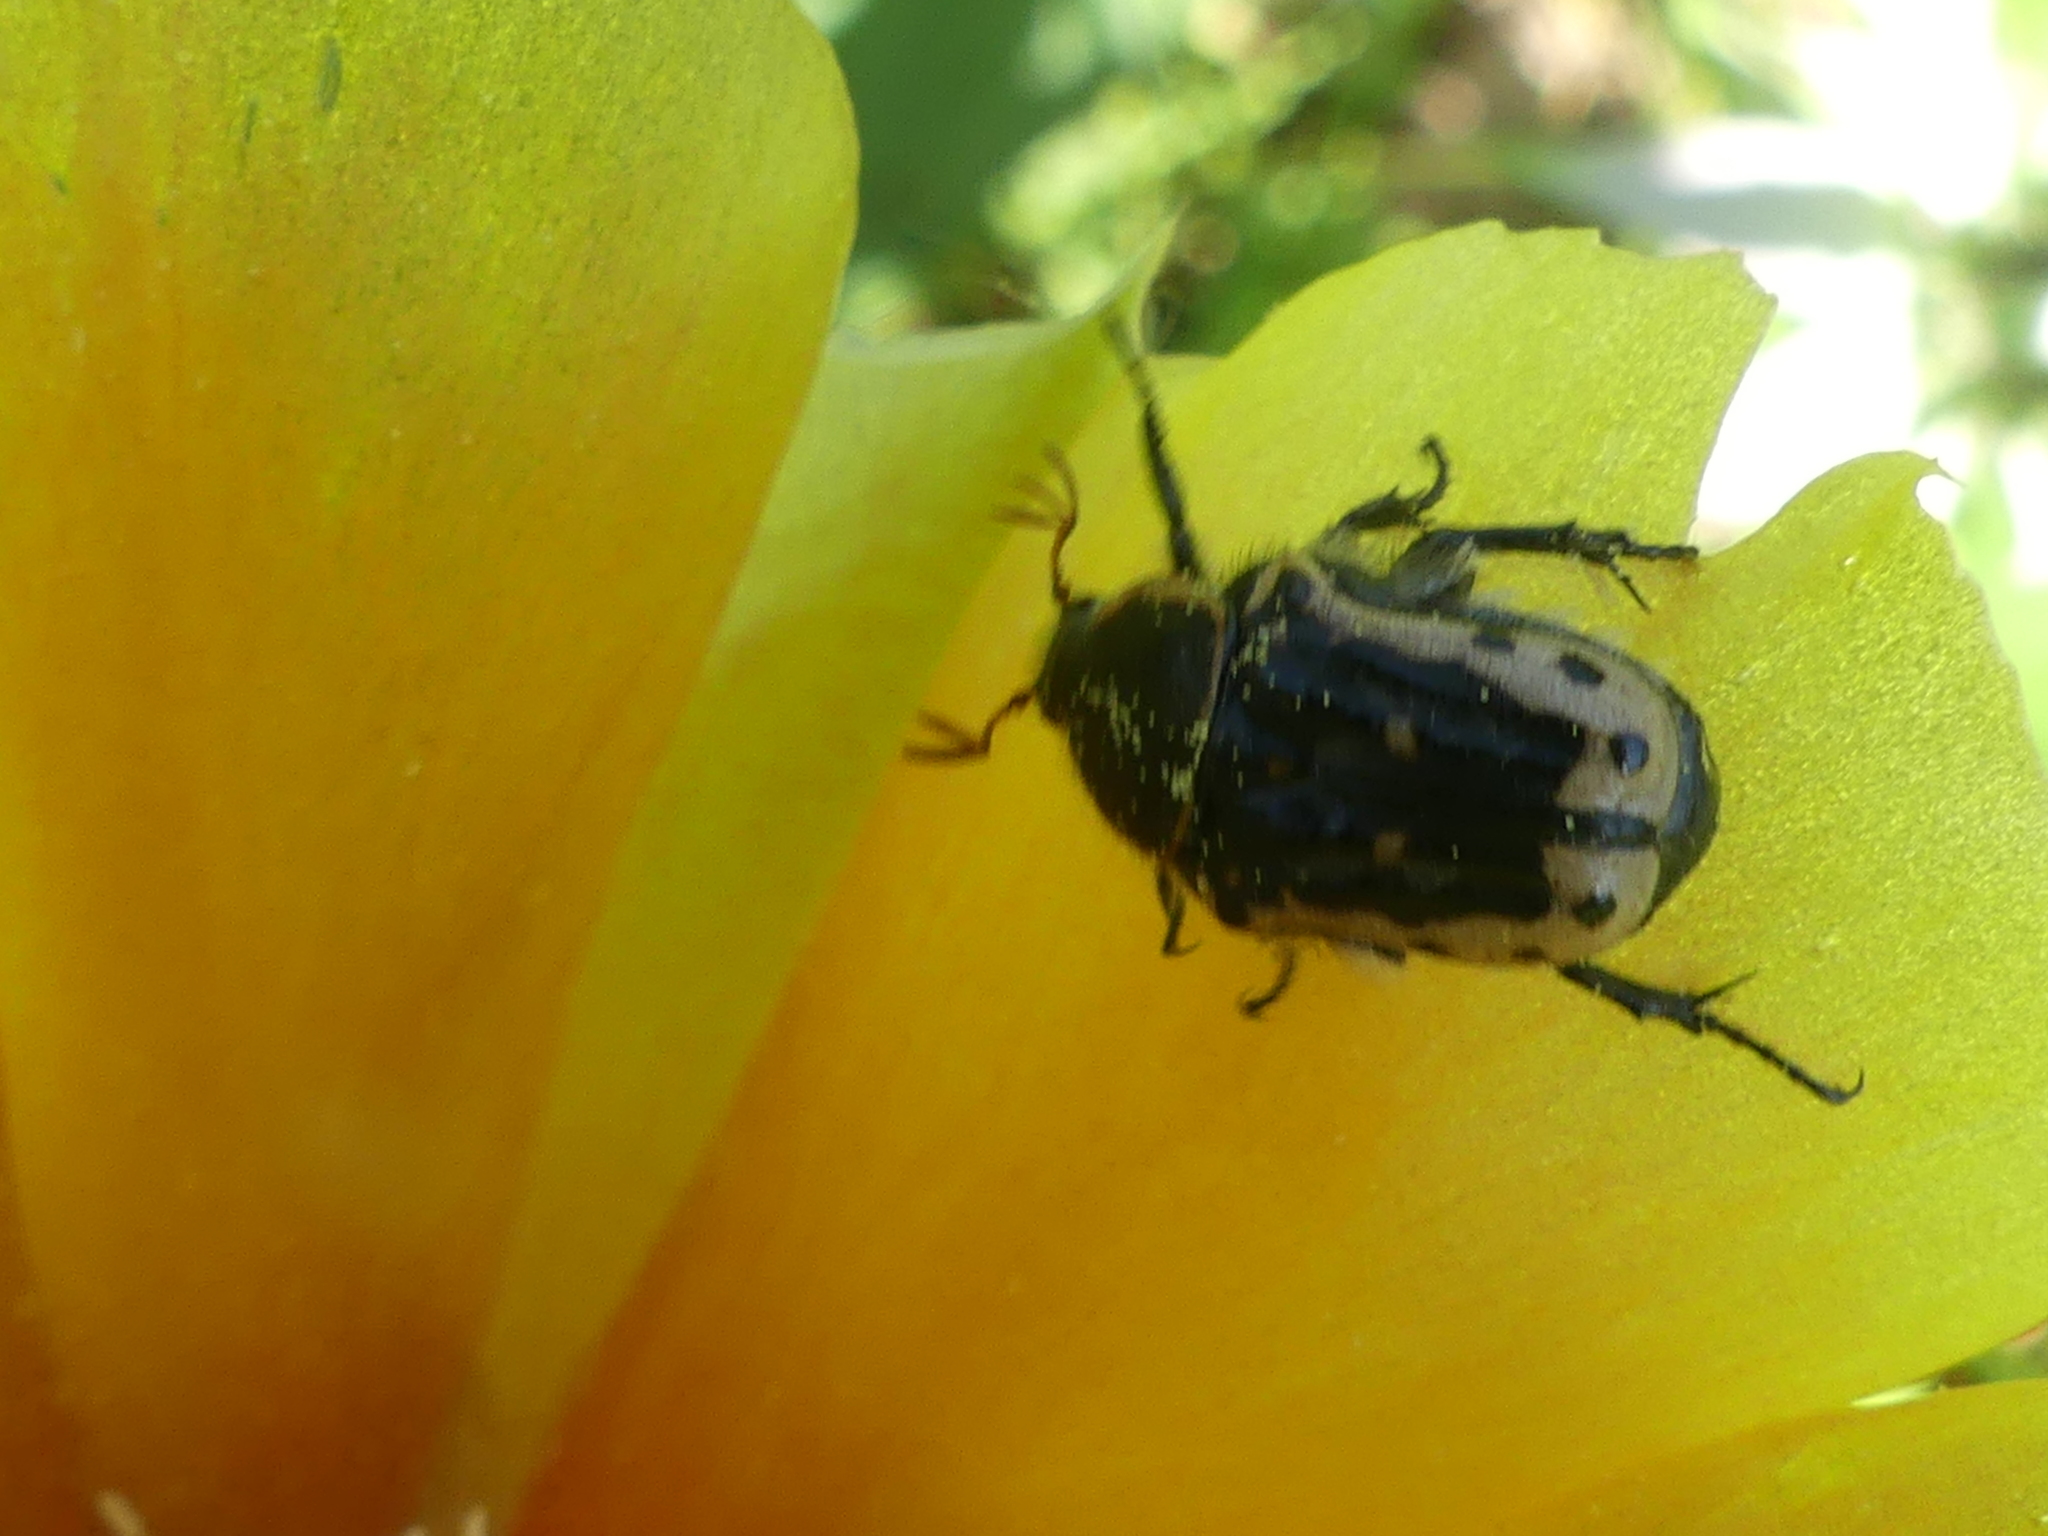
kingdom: Animalia
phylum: Arthropoda
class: Insecta
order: Coleoptera
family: Scarabaeidae
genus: Euphoria
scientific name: Euphoria kernii
